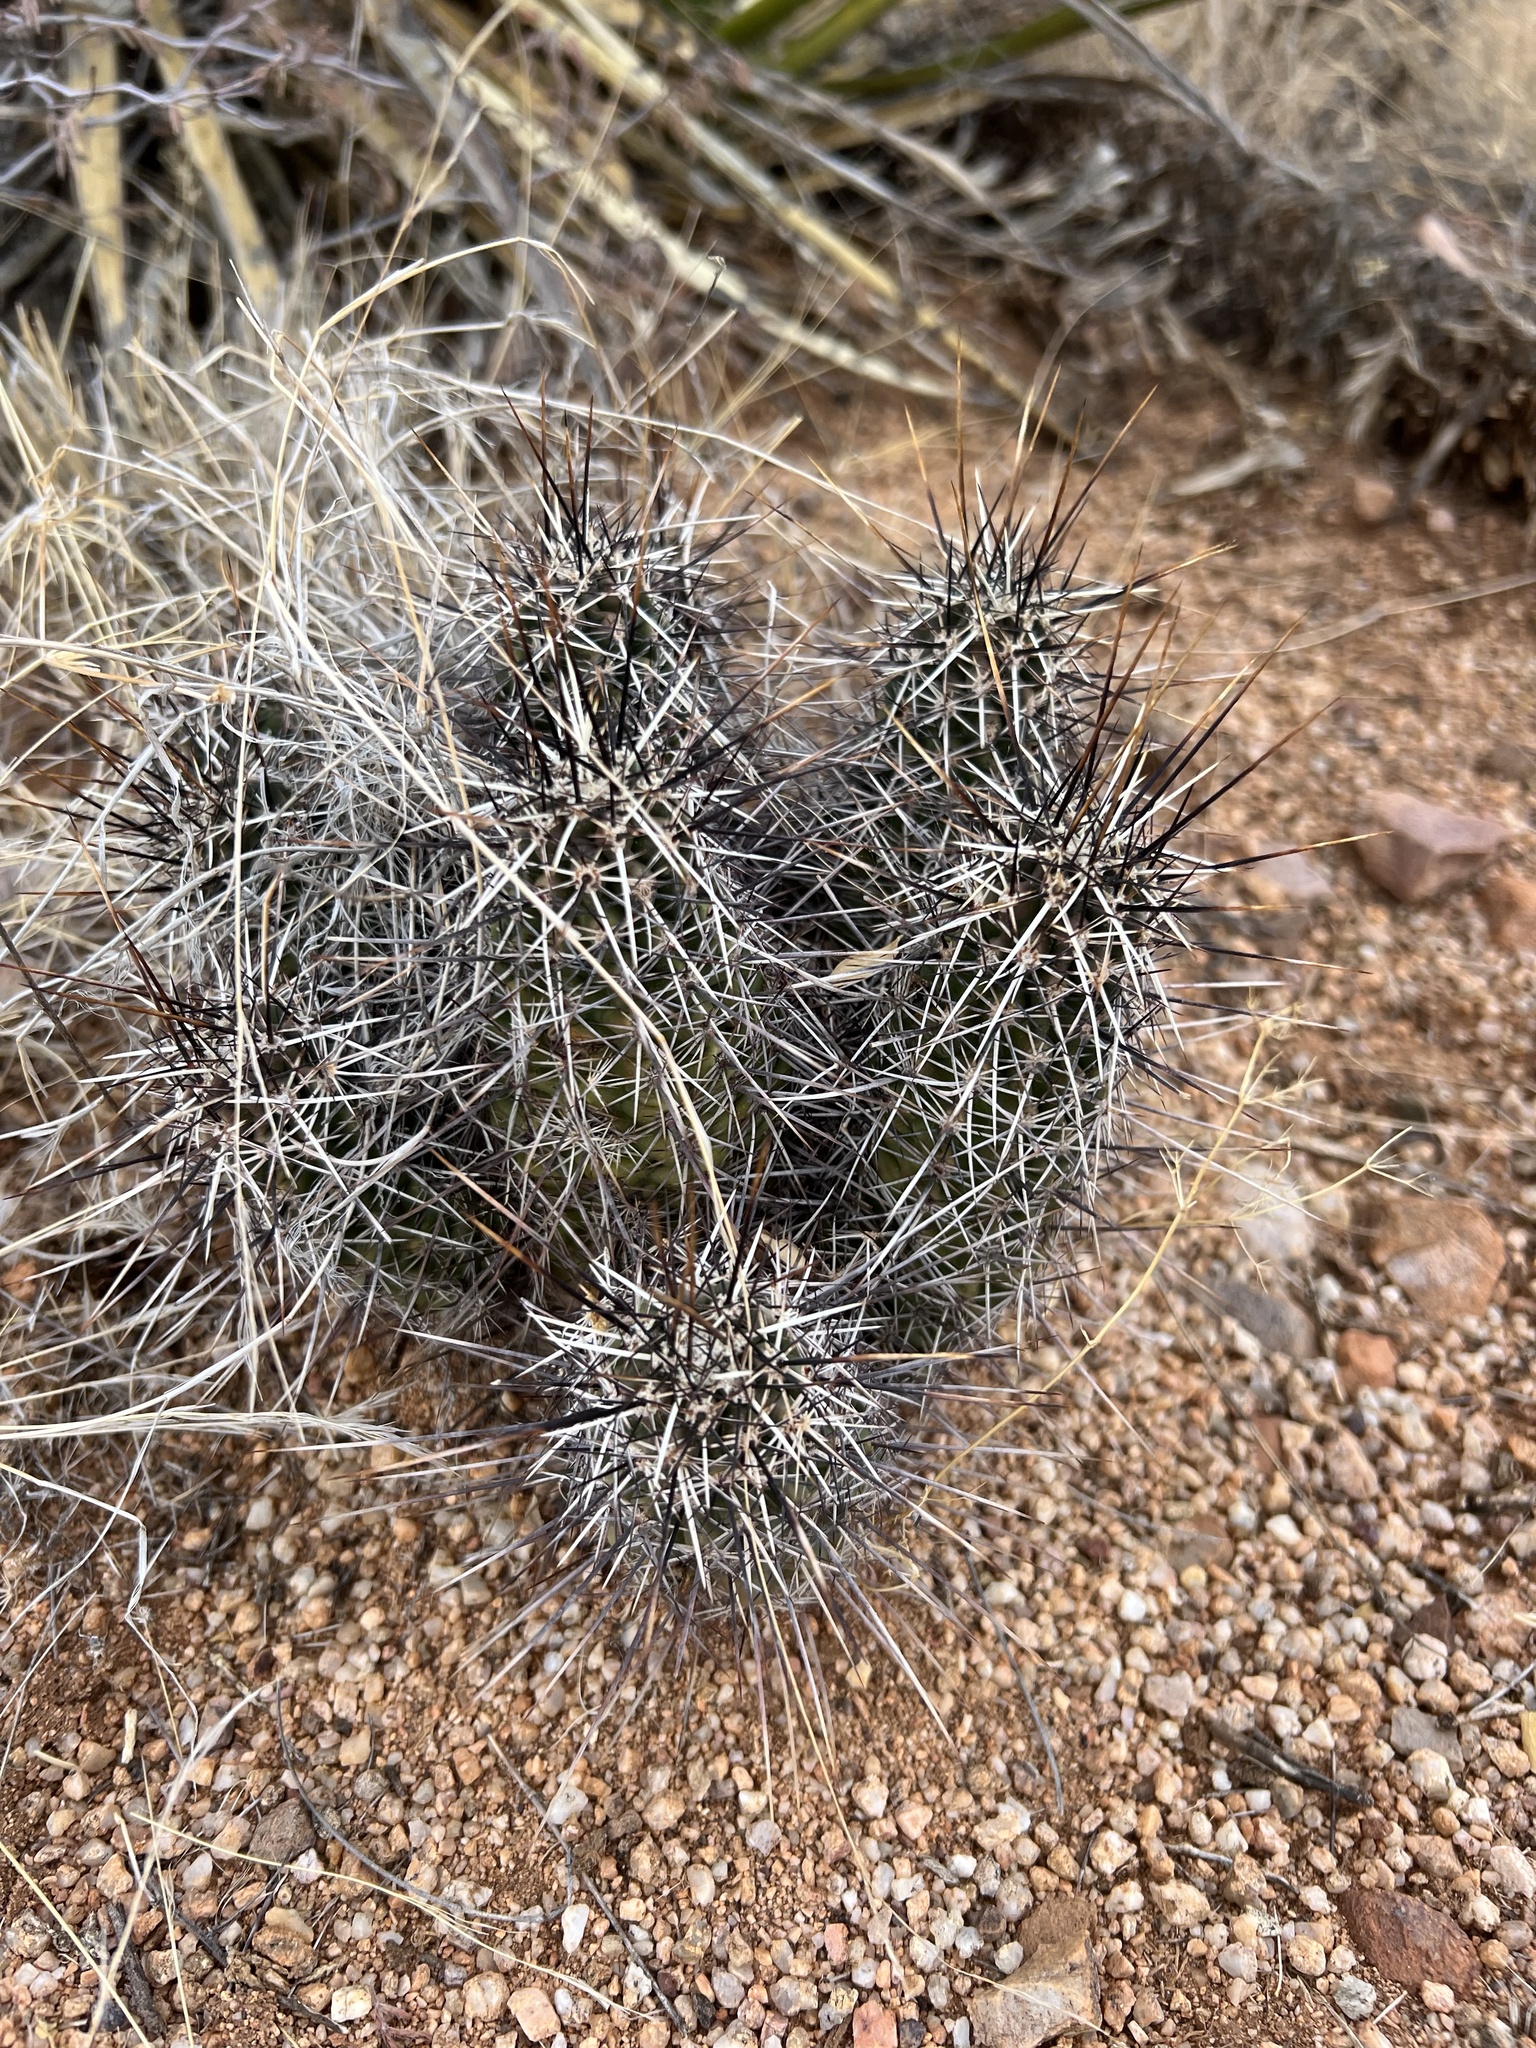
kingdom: Plantae
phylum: Tracheophyta
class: Magnoliopsida
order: Caryophyllales
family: Cactaceae
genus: Echinocereus
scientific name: Echinocereus fasciculatus
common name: Bundle hedgehog
